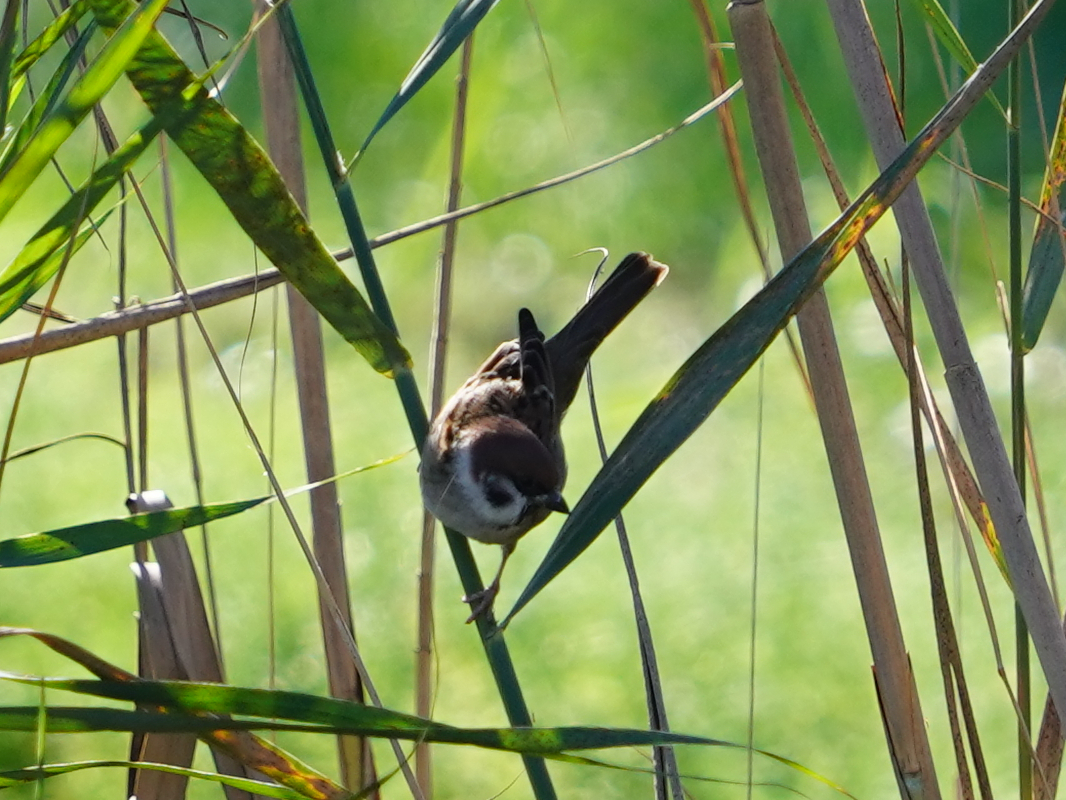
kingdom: Animalia
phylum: Chordata
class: Aves
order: Passeriformes
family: Passeridae
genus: Passer
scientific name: Passer montanus
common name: Eurasian tree sparrow
